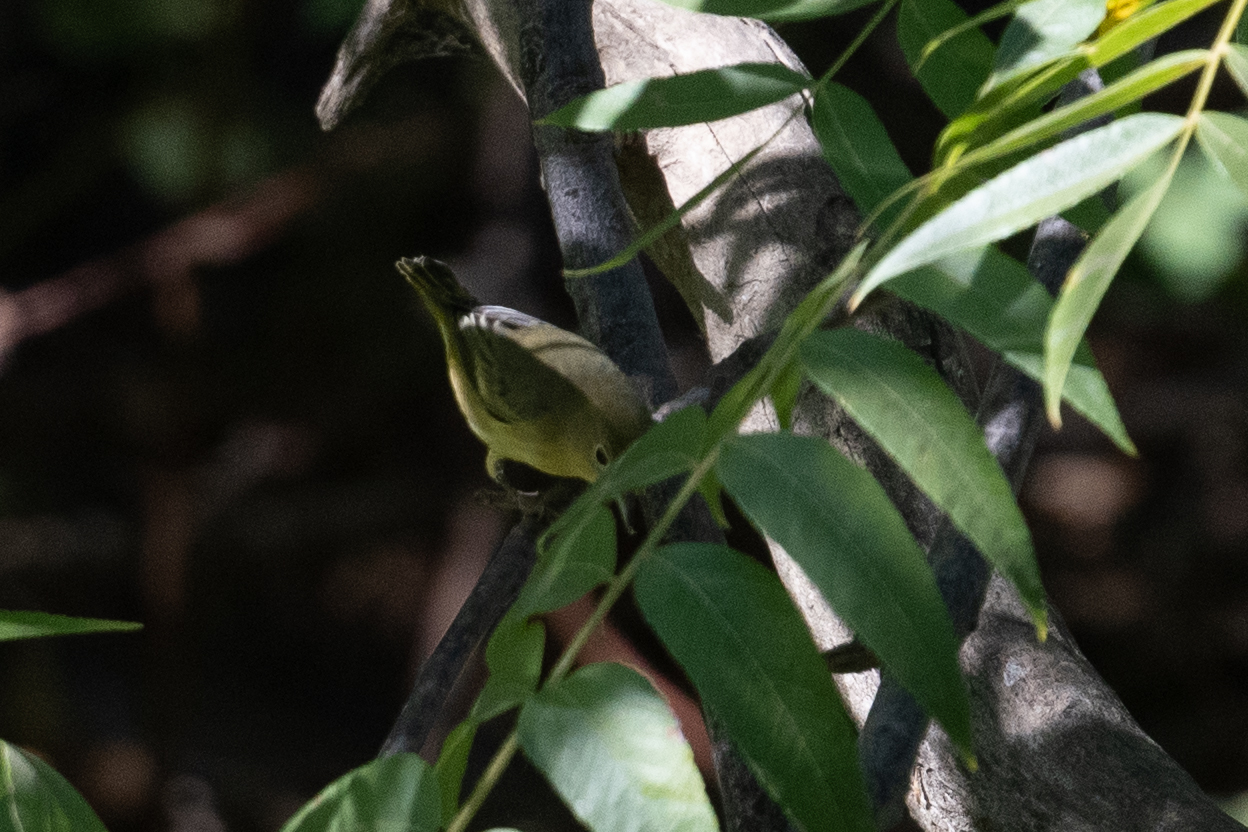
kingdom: Animalia
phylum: Chordata
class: Aves
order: Passeriformes
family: Parulidae
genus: Setophaga
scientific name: Setophaga petechia
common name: Yellow warbler
